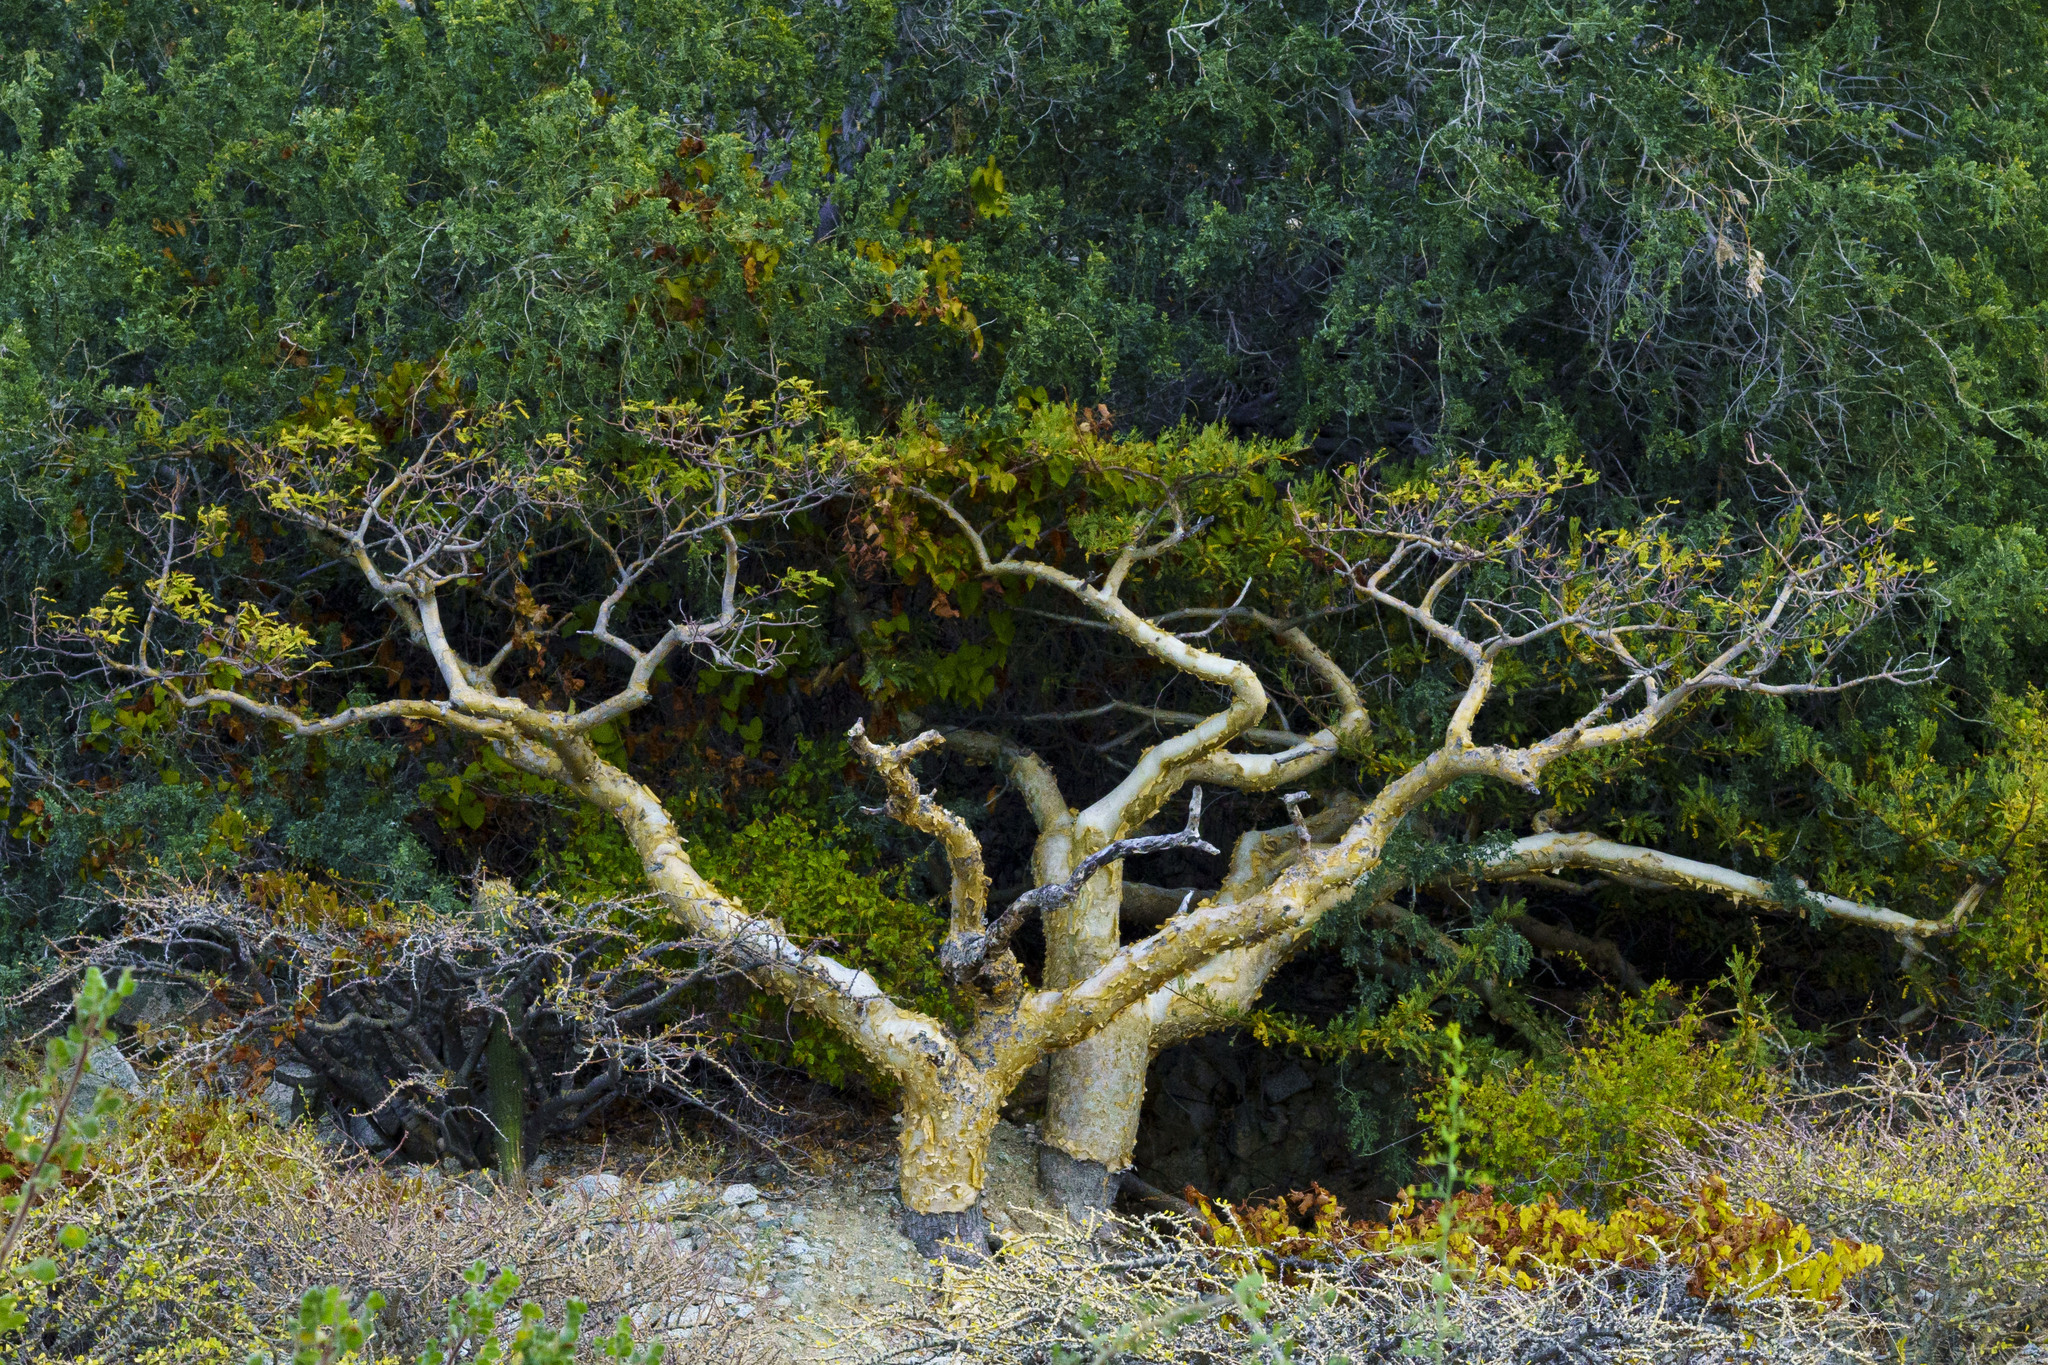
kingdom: Plantae
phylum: Tracheophyta
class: Magnoliopsida
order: Sapindales
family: Burseraceae
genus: Bursera
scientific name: Bursera microphylla
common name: Elephant tree
